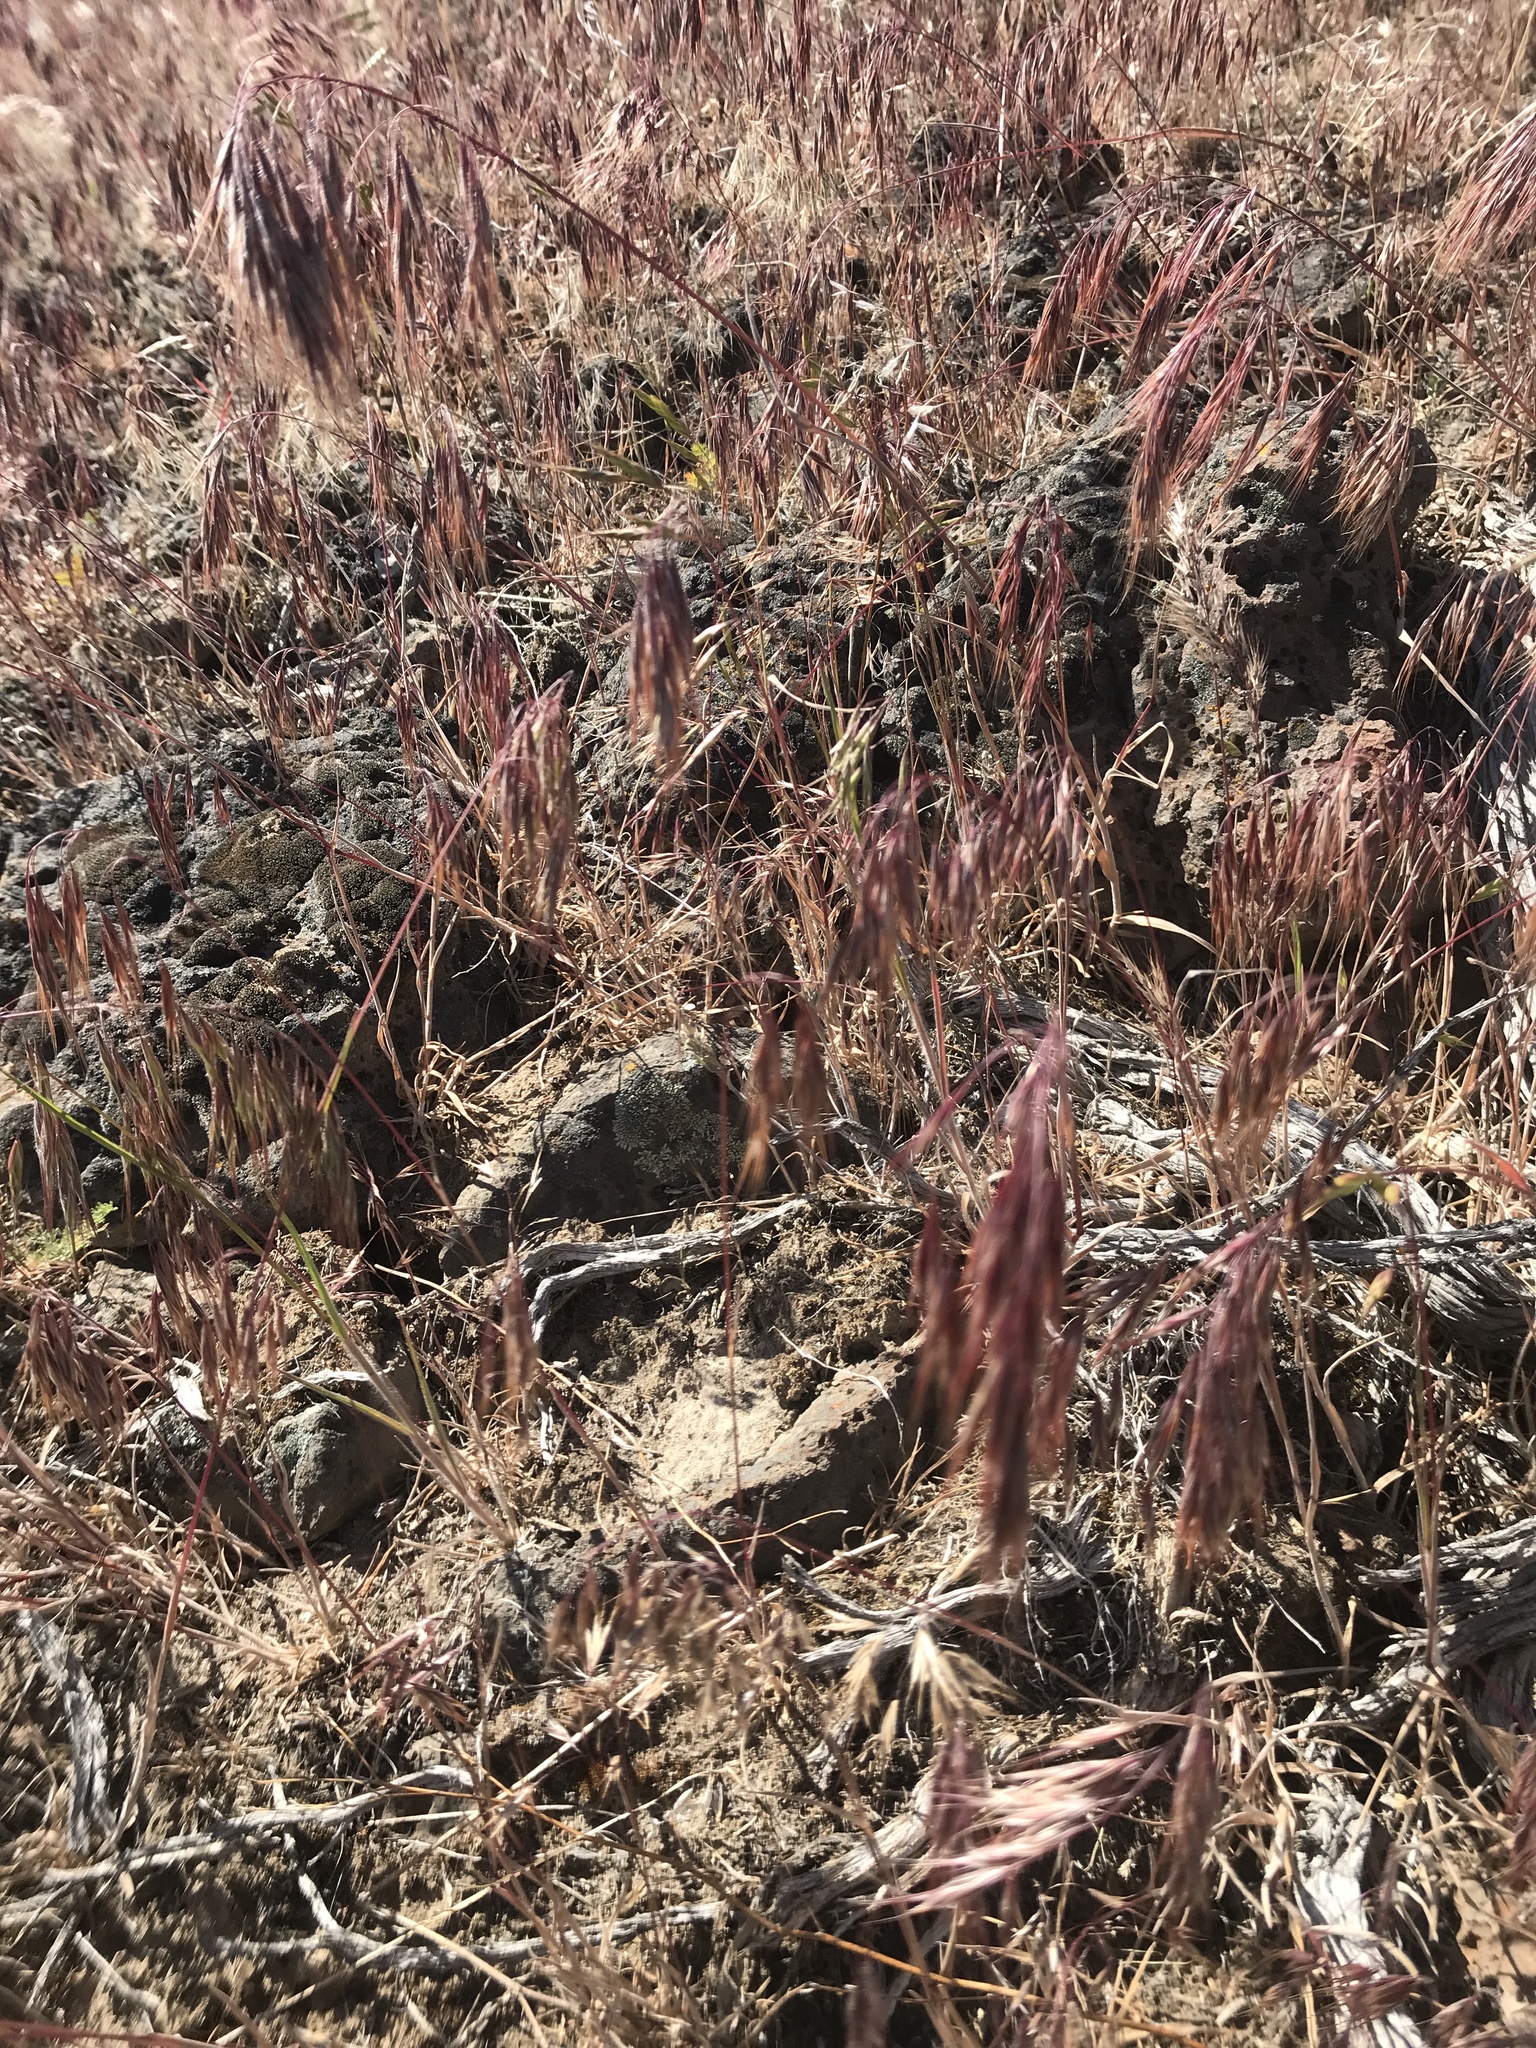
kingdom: Plantae
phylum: Tracheophyta
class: Liliopsida
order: Poales
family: Poaceae
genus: Bromus
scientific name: Bromus tectorum
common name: Cheatgrass
